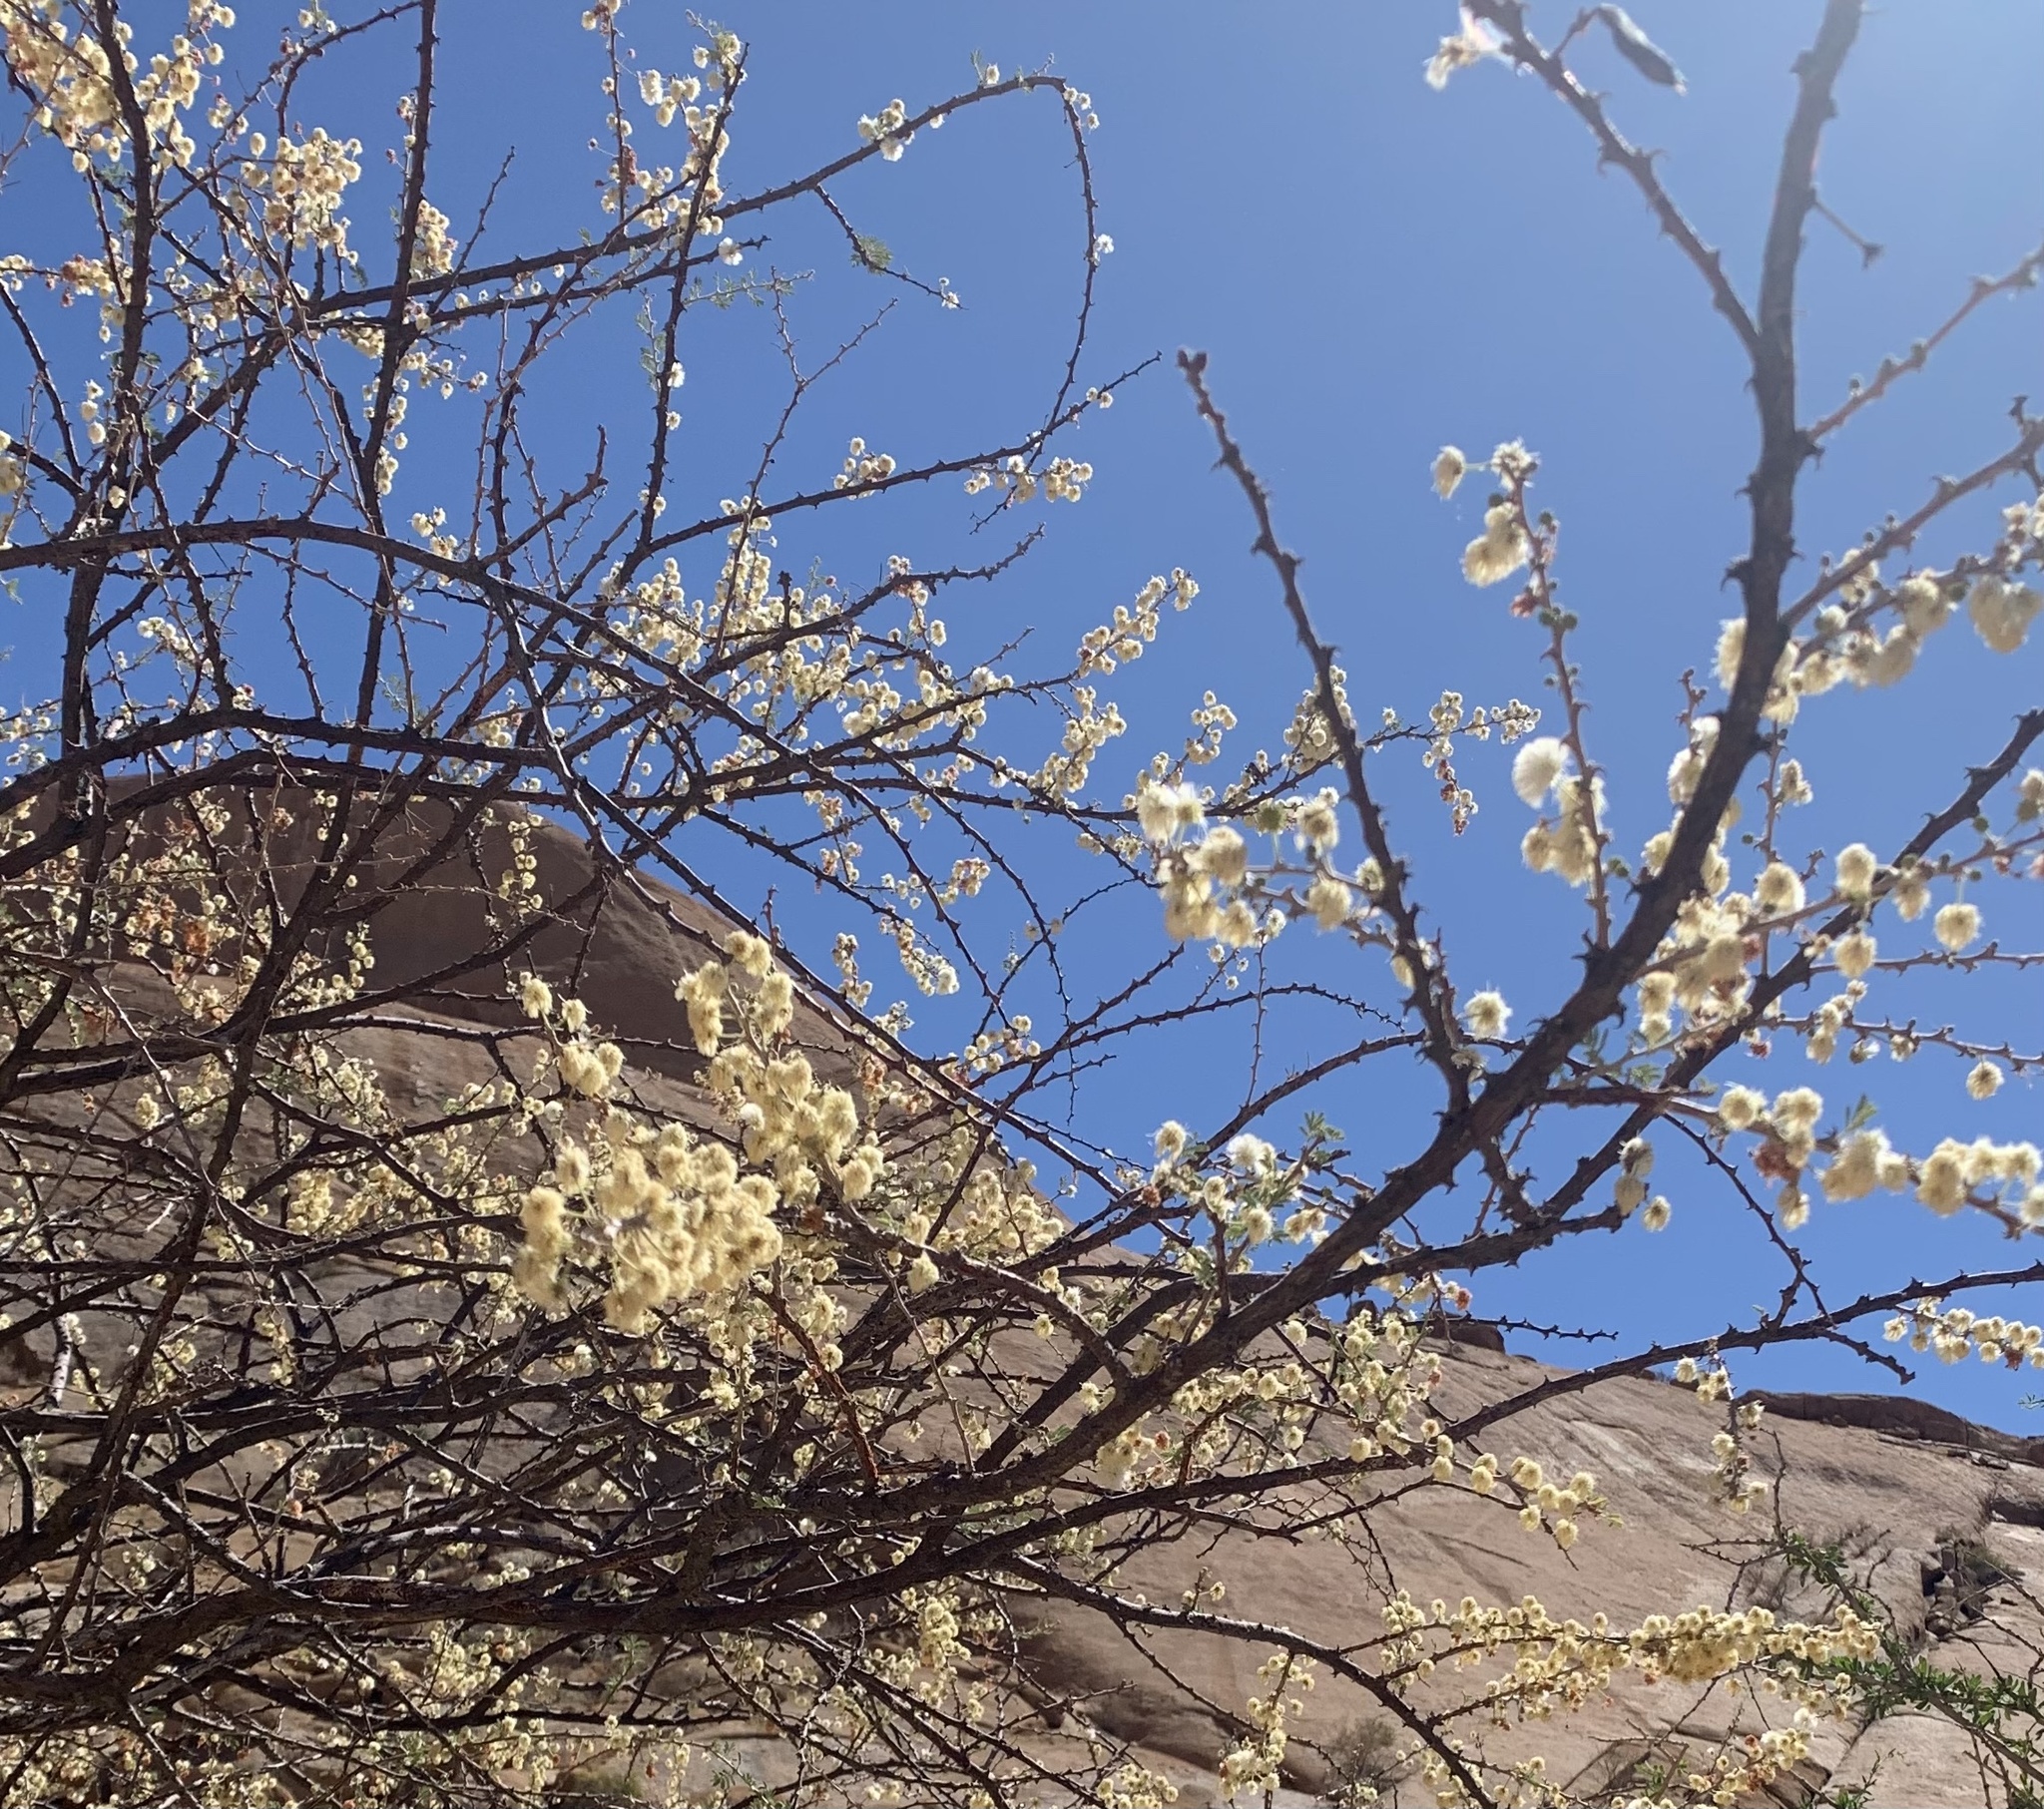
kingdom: Plantae
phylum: Tracheophyta
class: Magnoliopsida
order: Fabales
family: Fabaceae
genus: Senegalia
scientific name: Senegalia mellifera
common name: Hookthorn
